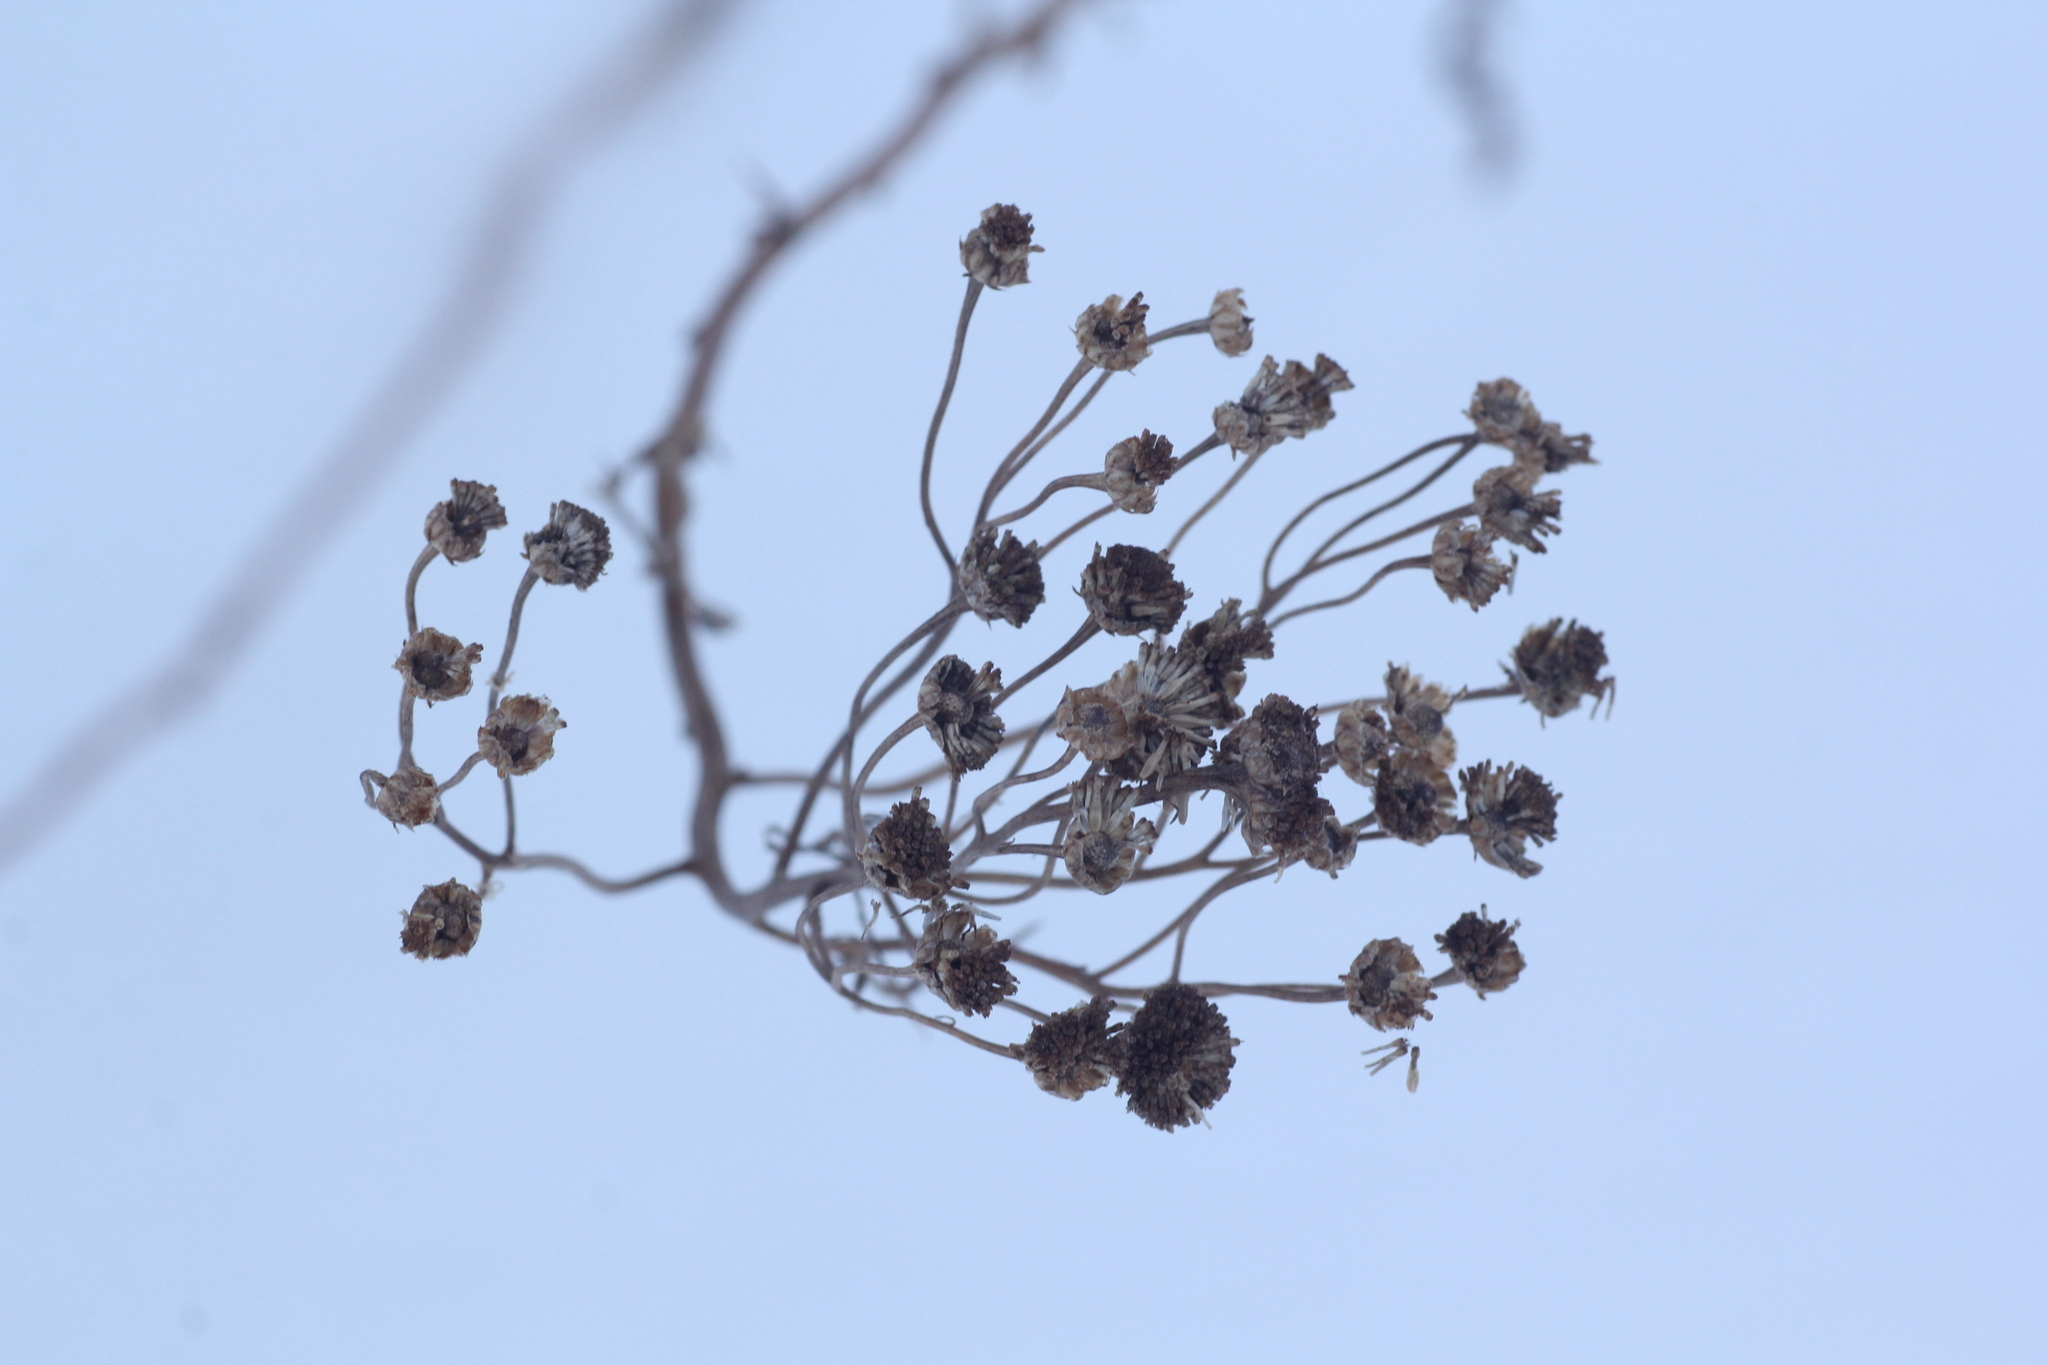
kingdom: Plantae
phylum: Tracheophyta
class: Magnoliopsida
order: Asterales
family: Asteraceae
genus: Tanacetum
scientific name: Tanacetum vulgare
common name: Common tansy
